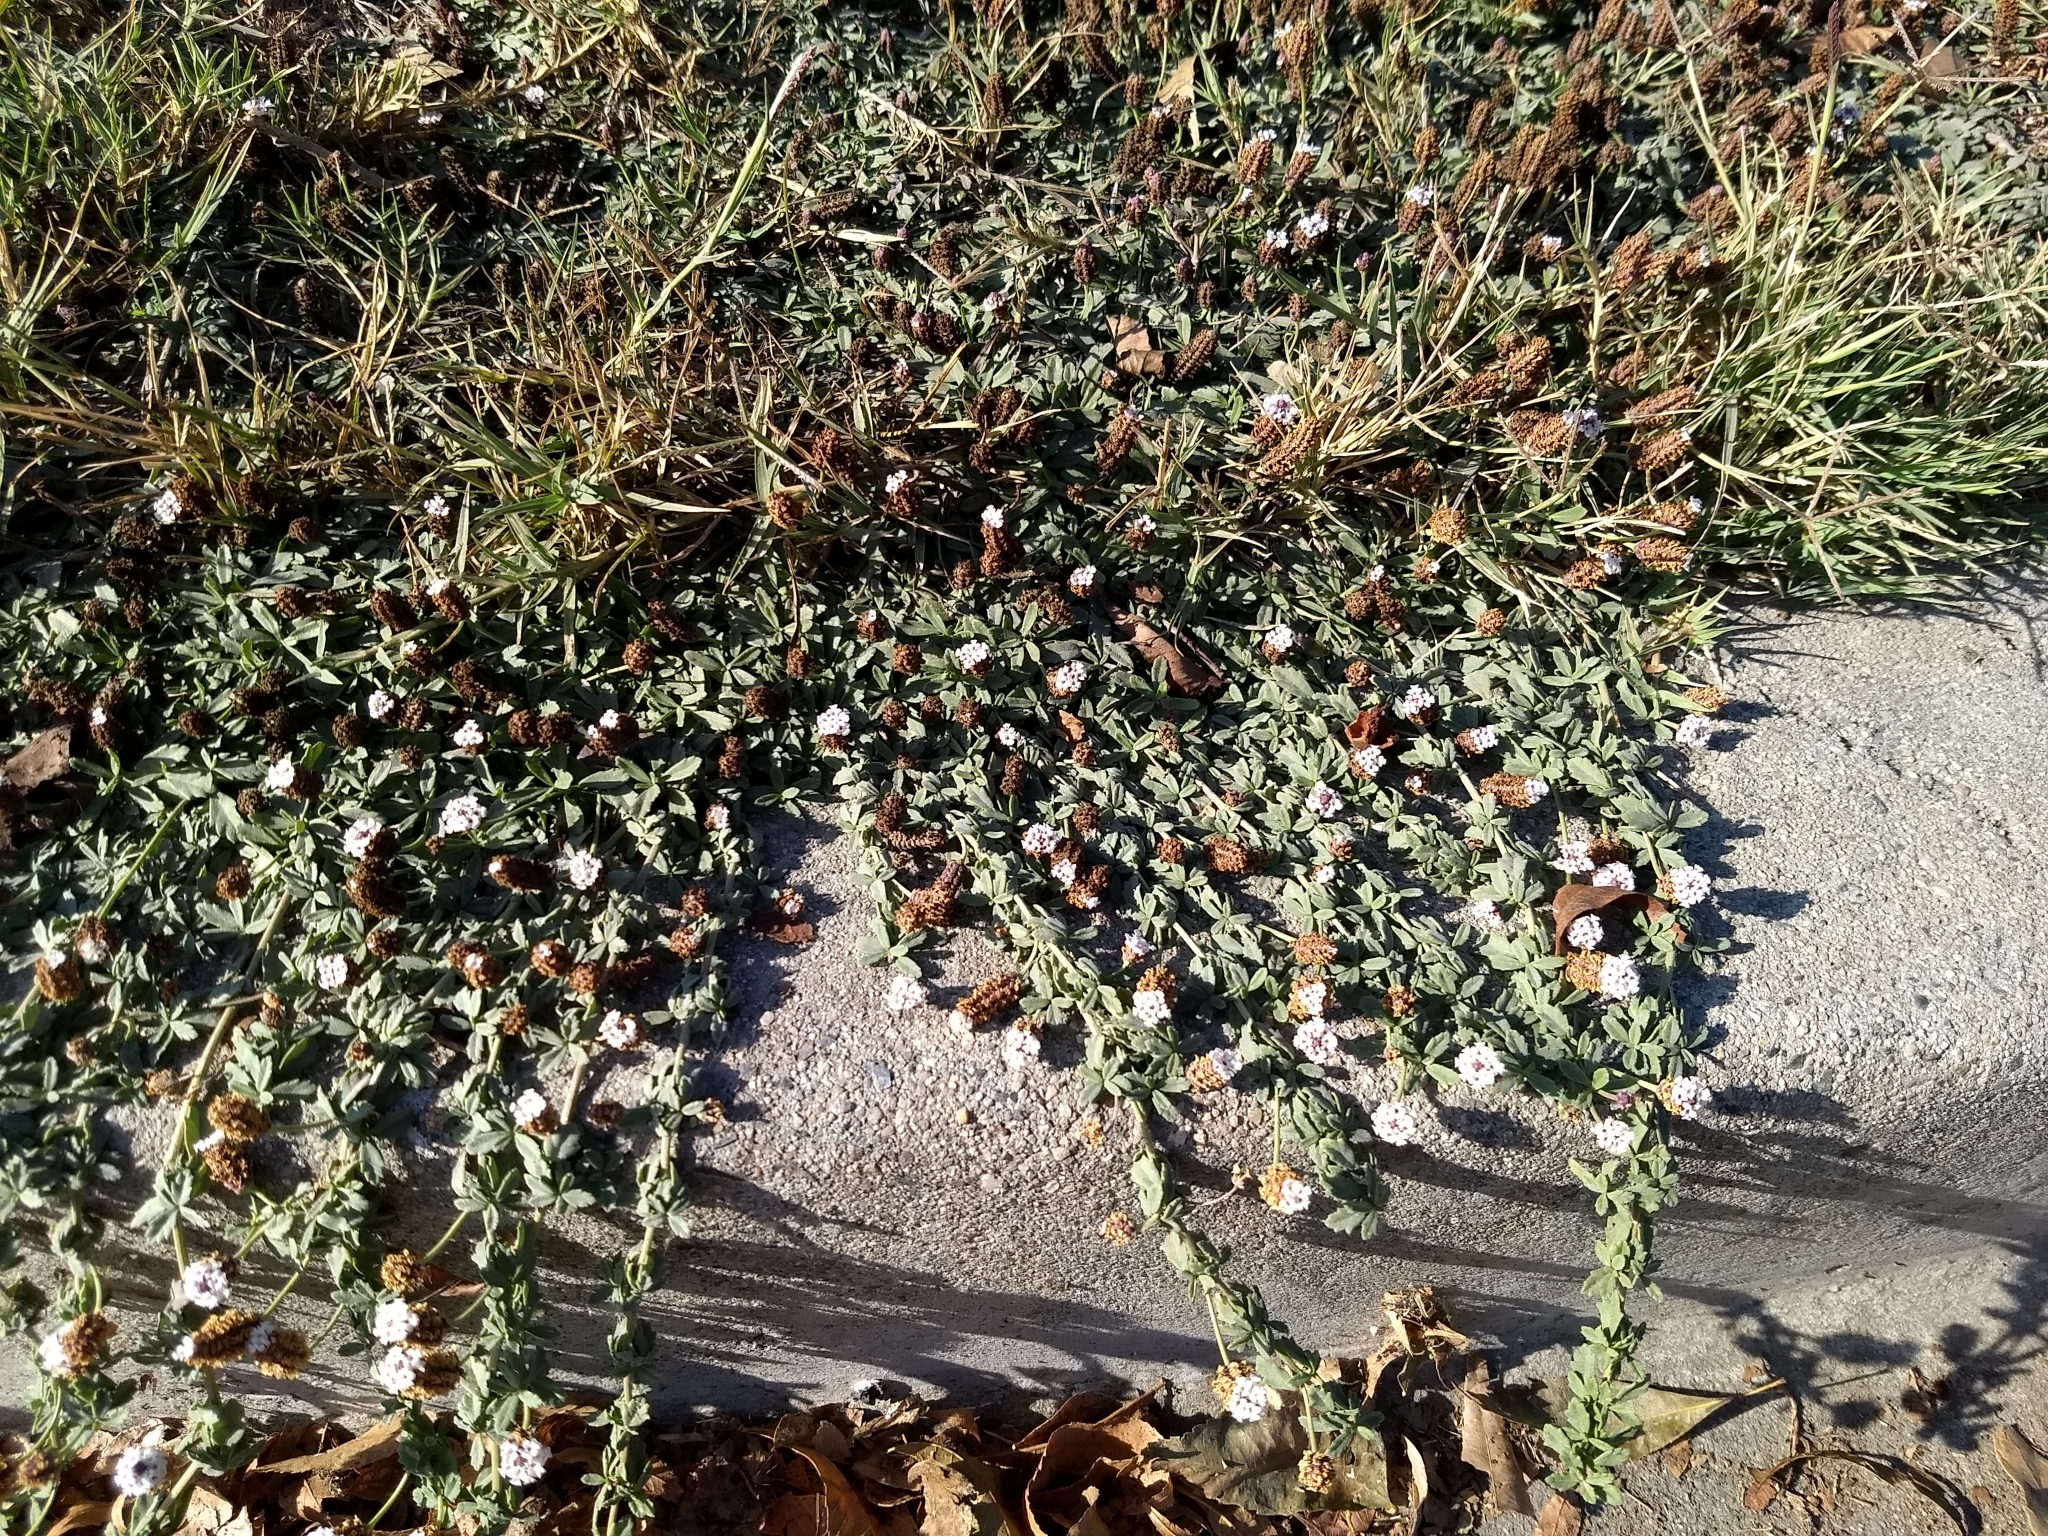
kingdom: Plantae
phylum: Tracheophyta
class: Magnoliopsida
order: Lamiales
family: Verbenaceae
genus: Phyla
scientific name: Phyla nodiflora
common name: Frogfruit
